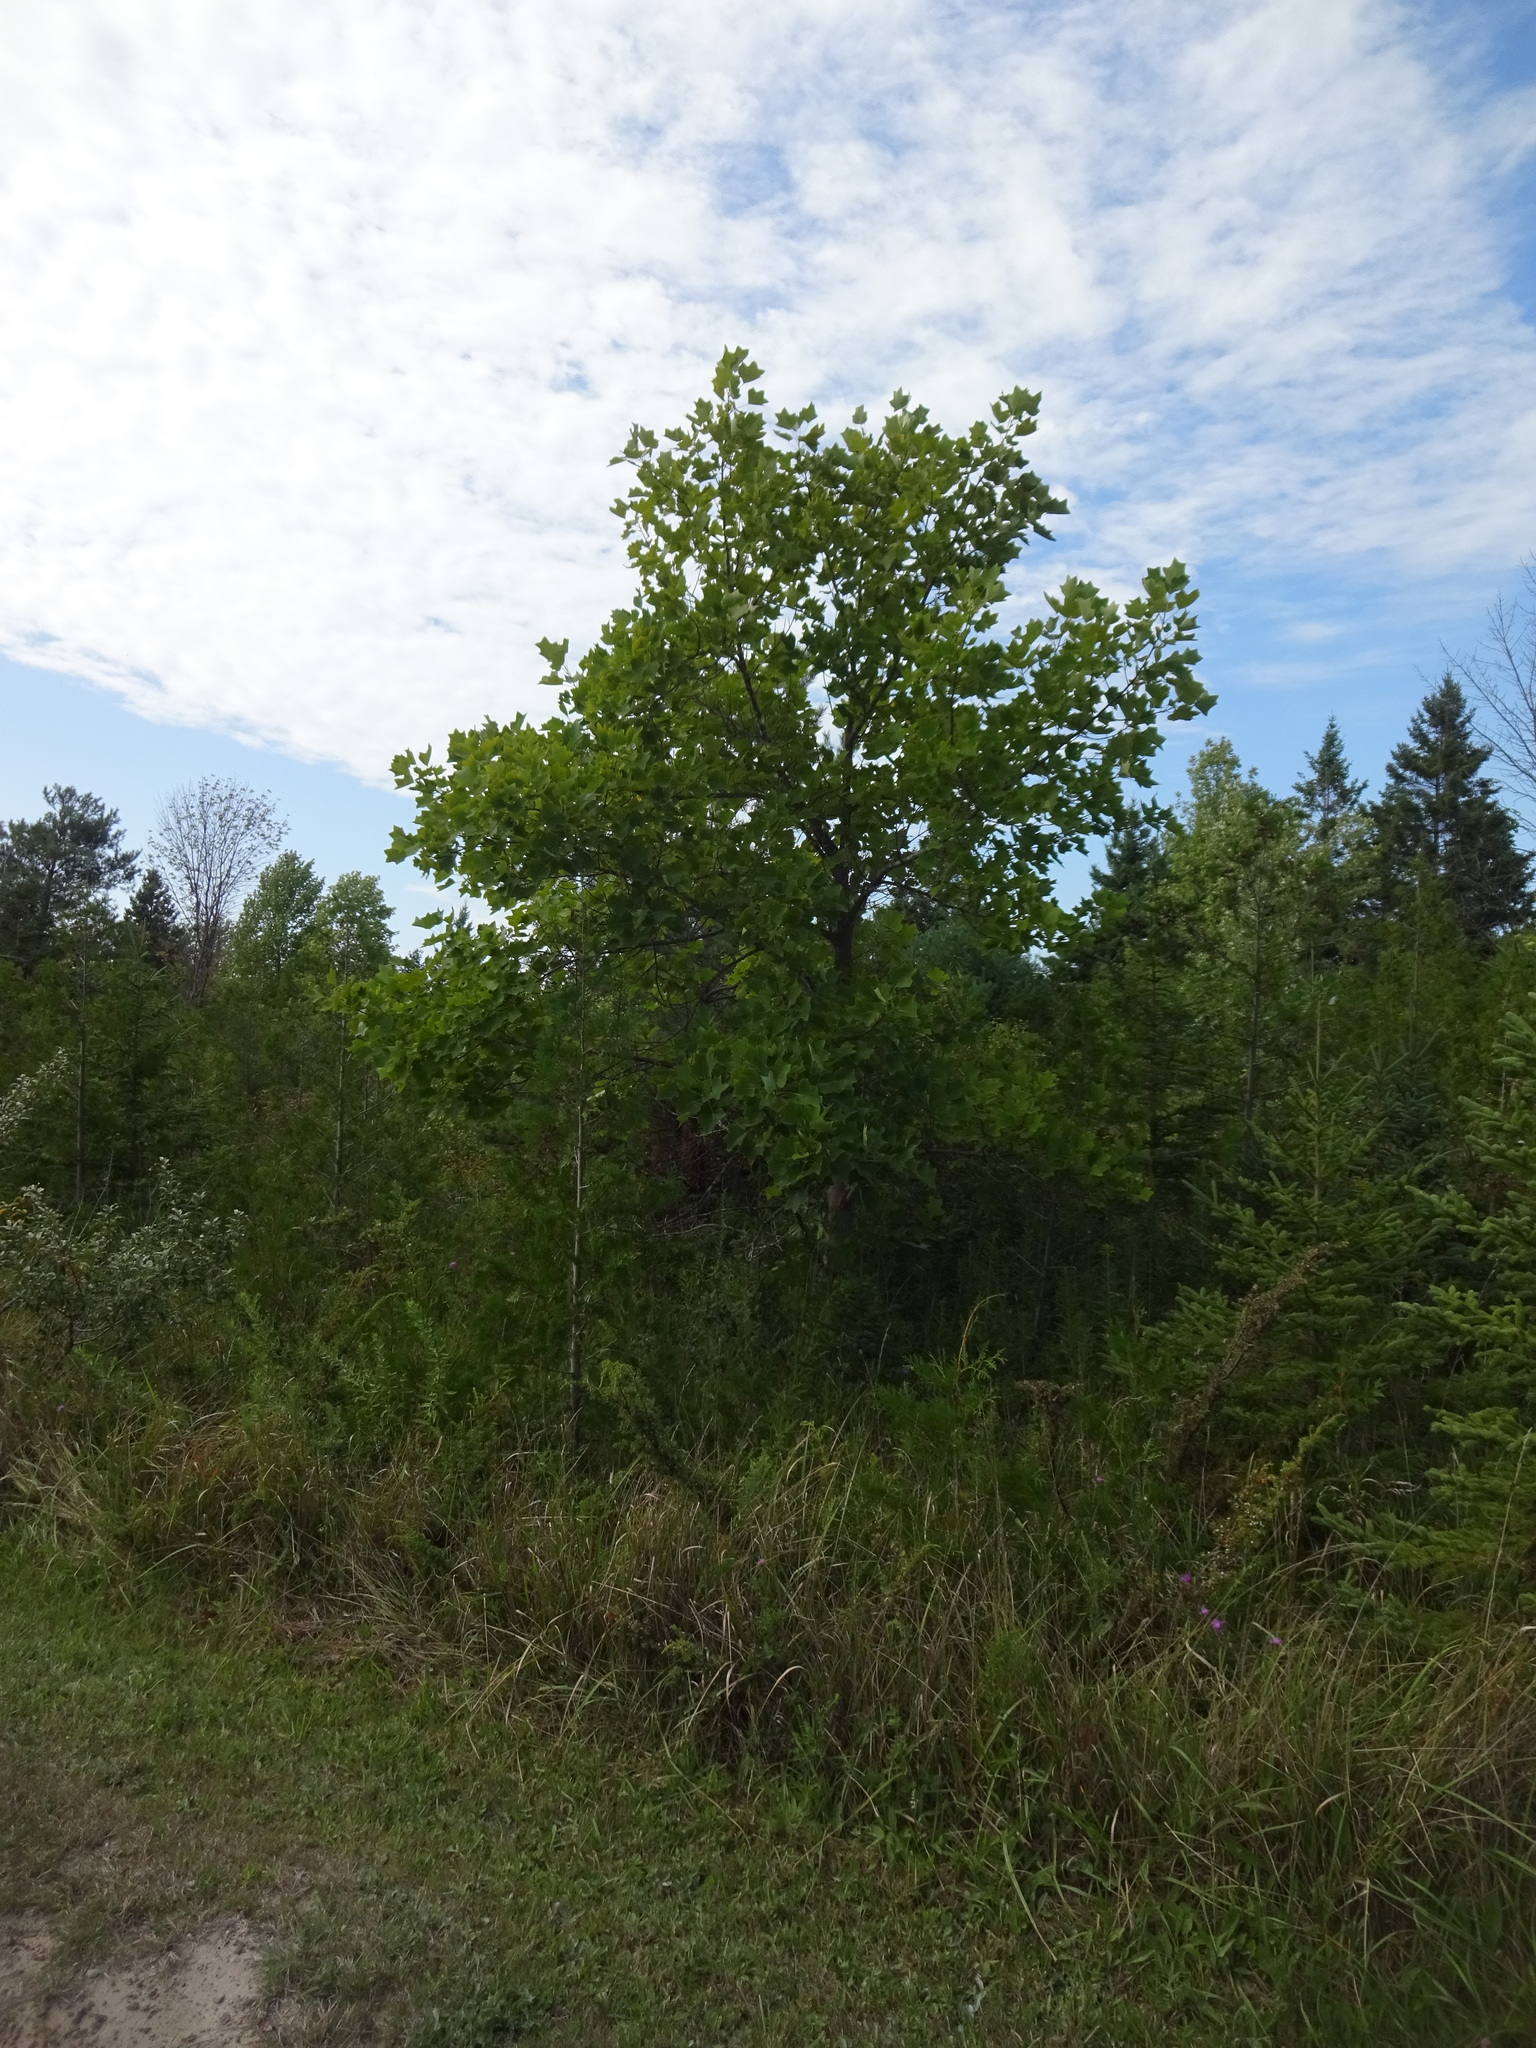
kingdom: Plantae
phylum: Tracheophyta
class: Magnoliopsida
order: Magnoliales
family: Magnoliaceae
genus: Liriodendron
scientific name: Liriodendron tulipifera
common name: Tulip tree
